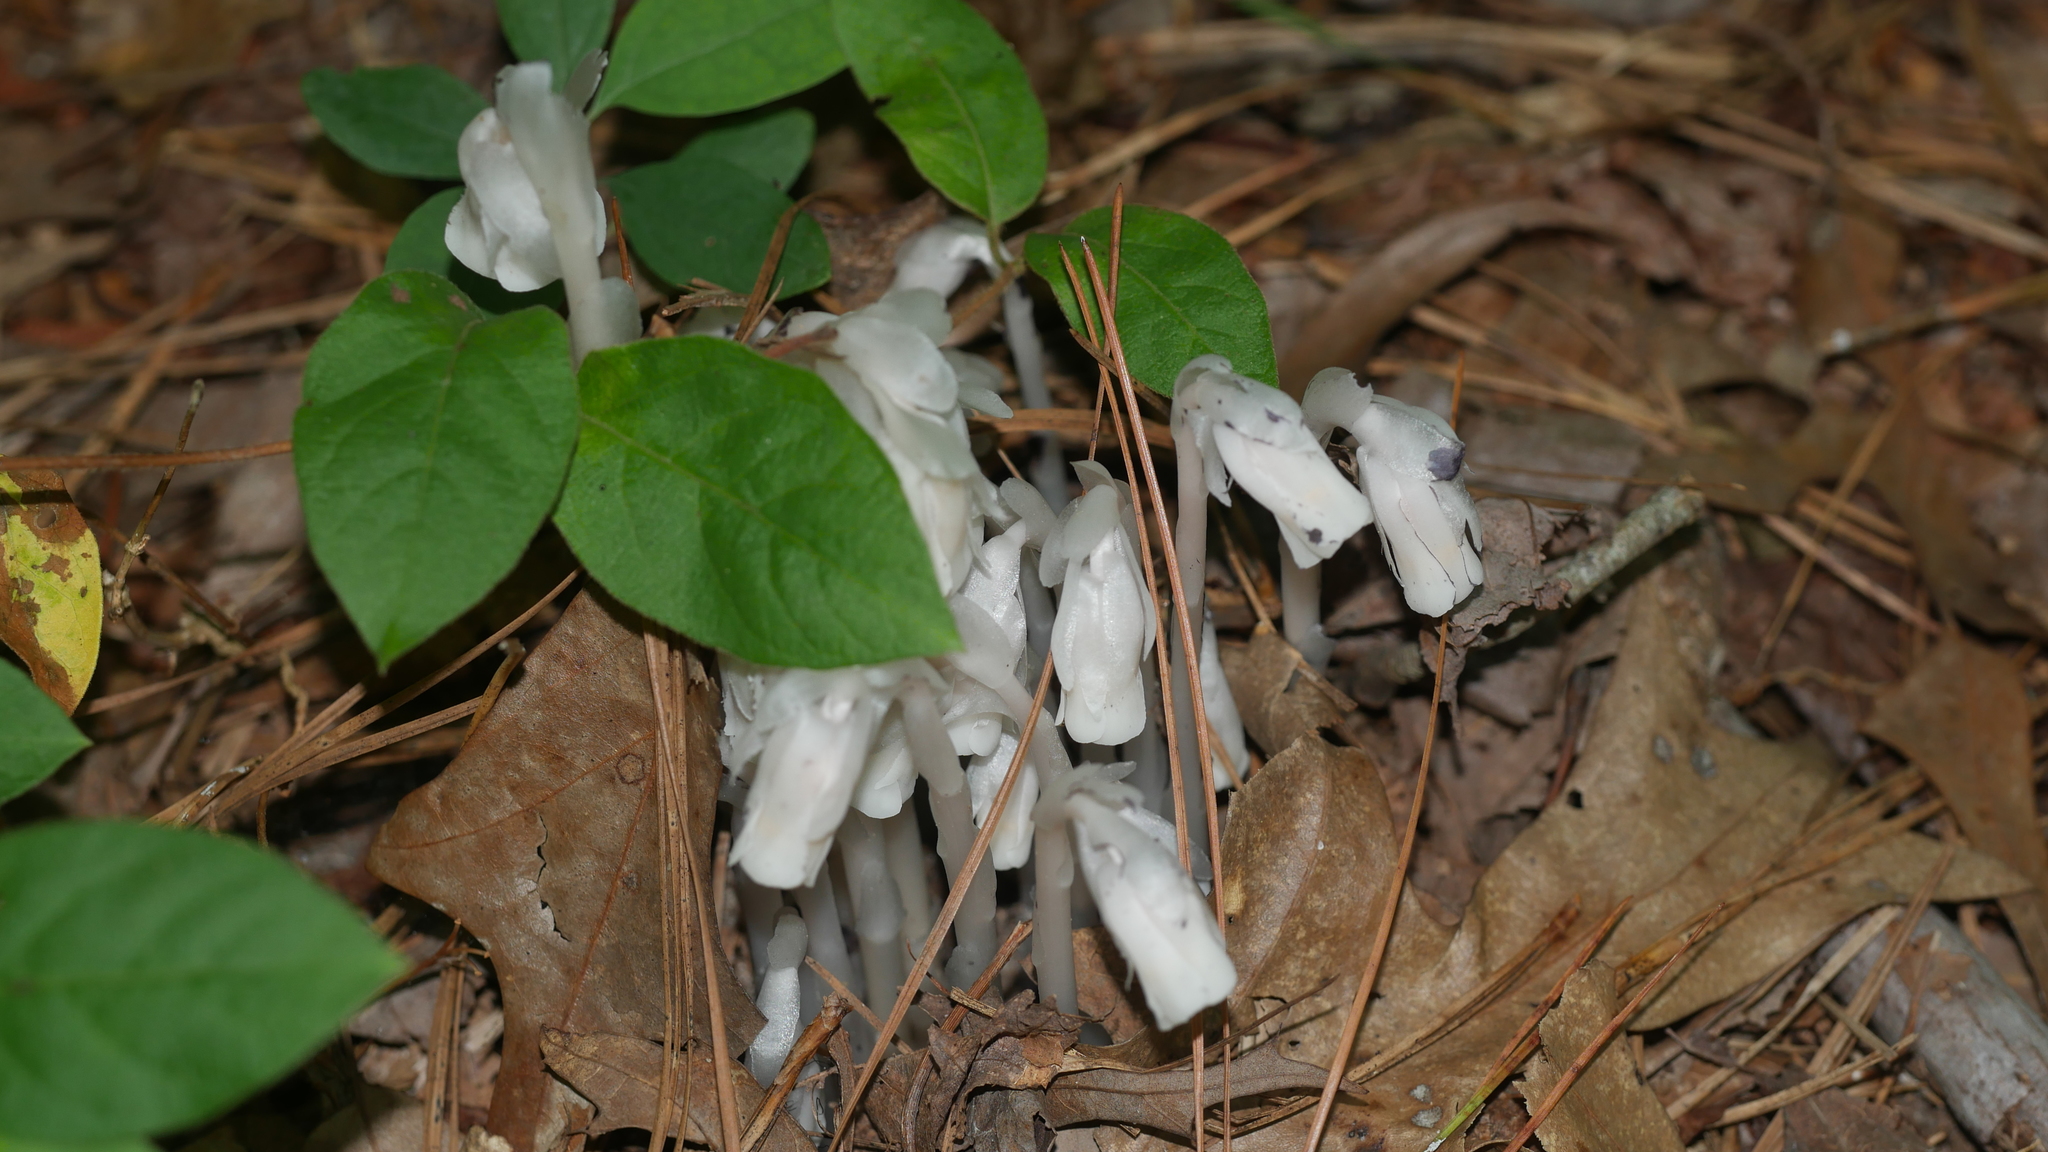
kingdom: Plantae
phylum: Tracheophyta
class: Magnoliopsida
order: Ericales
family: Ericaceae
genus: Monotropa
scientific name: Monotropa uniflora
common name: Convulsion root
